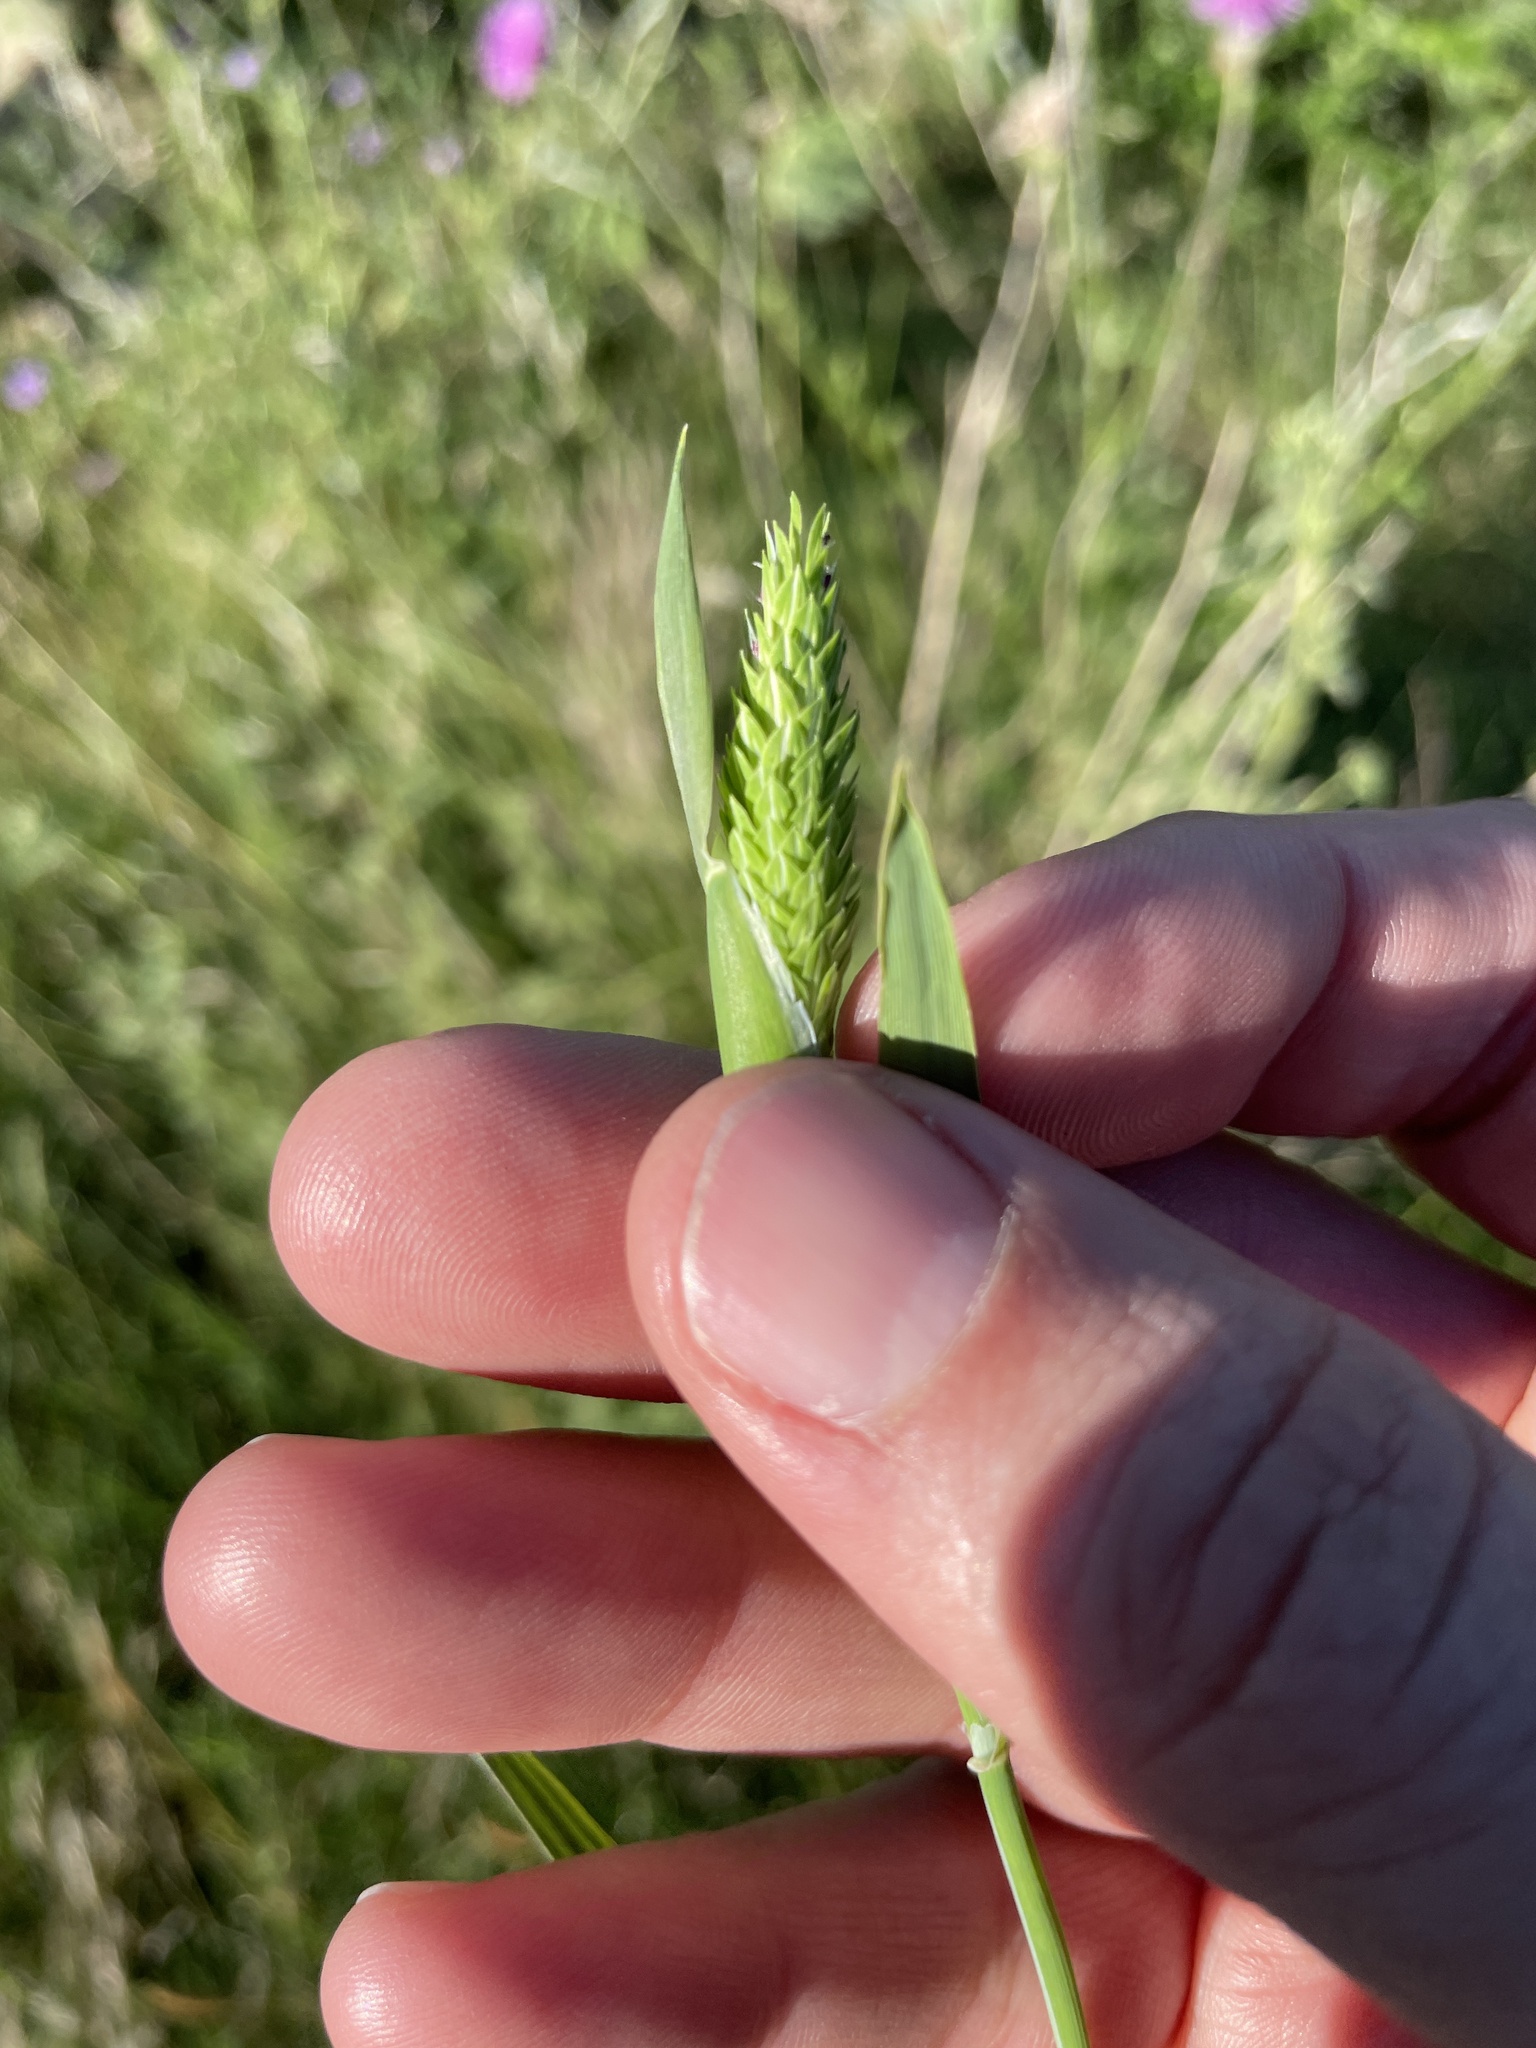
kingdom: Plantae
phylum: Tracheophyta
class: Liliopsida
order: Poales
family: Poaceae
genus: Phalaris
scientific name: Phalaris caroliniana
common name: May grass
